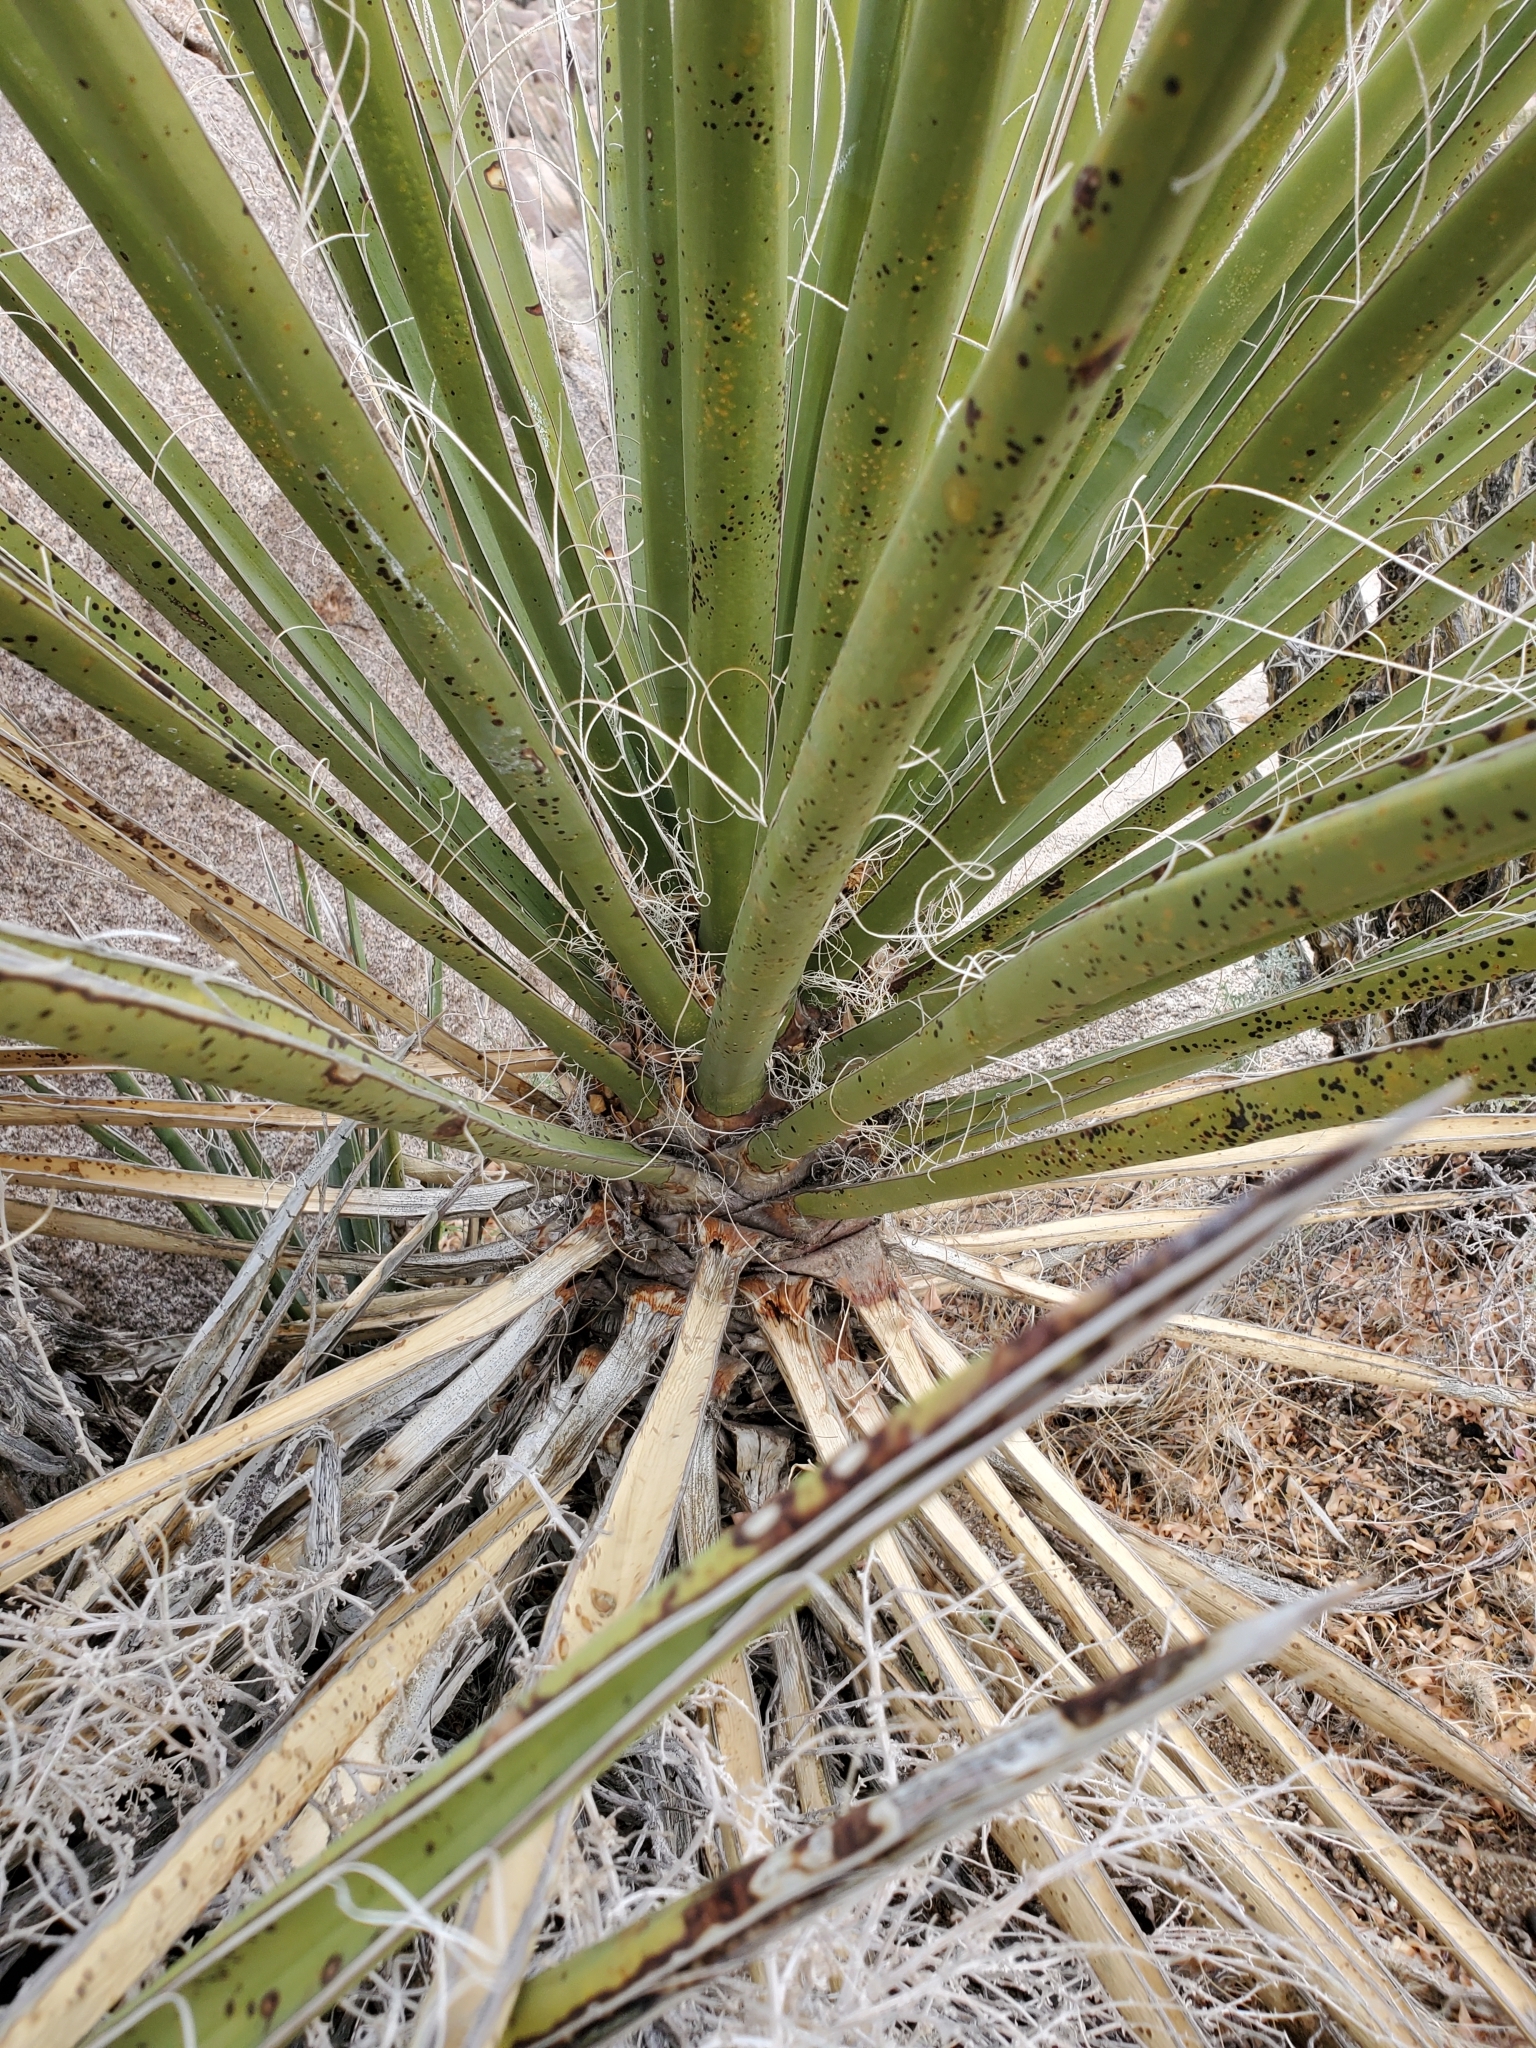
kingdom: Plantae
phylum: Tracheophyta
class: Liliopsida
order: Asparagales
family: Asparagaceae
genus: Yucca
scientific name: Yucca schidigera
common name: Mojave yucca
